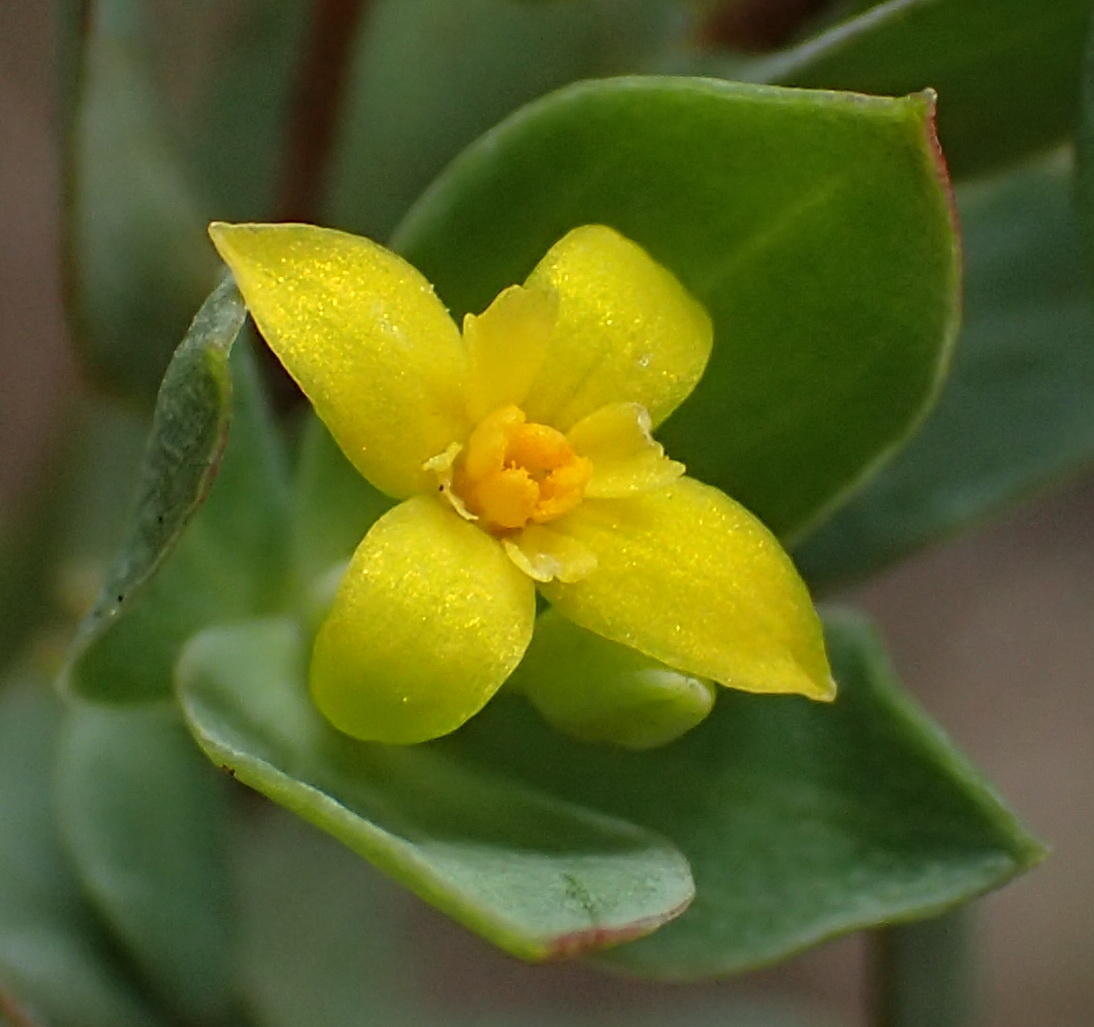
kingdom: Plantae
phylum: Tracheophyta
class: Magnoliopsida
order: Malvales
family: Thymelaeaceae
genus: Gnidia
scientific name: Gnidia juniperifolia
